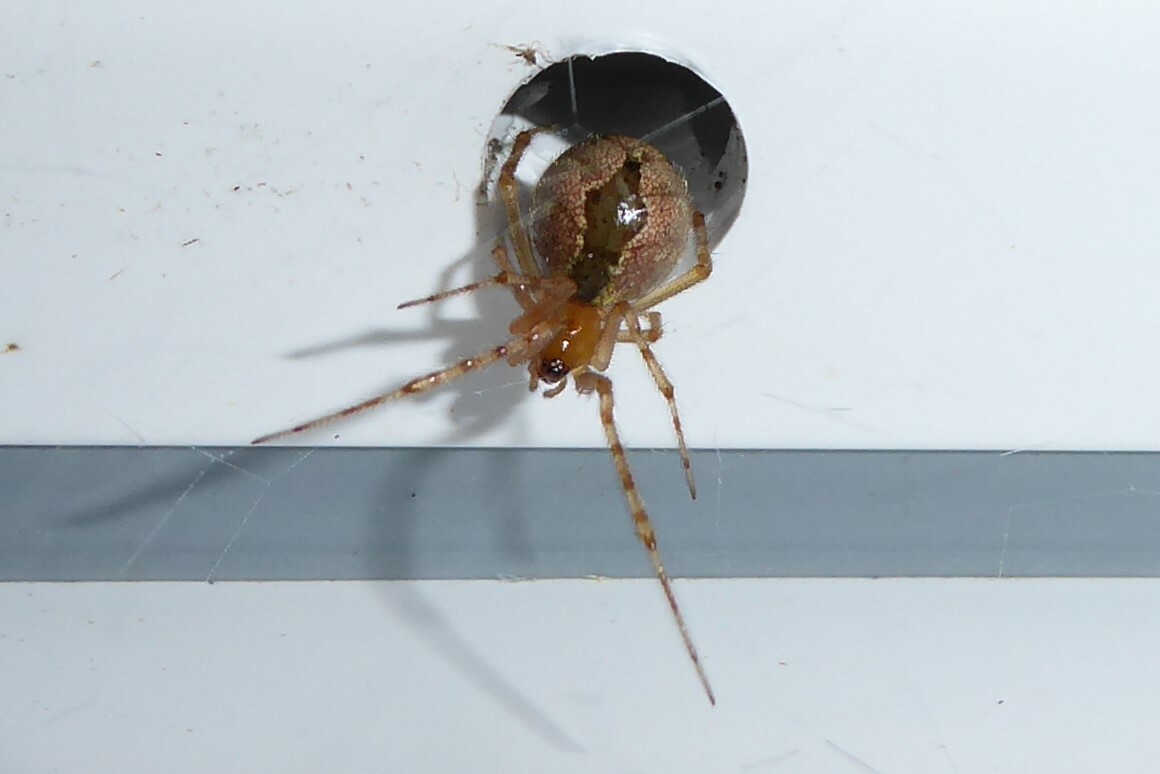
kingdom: Animalia
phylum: Arthropoda
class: Arachnida
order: Araneae
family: Theridiidae
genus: Cryptachaea
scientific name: Cryptachaea veruculata
